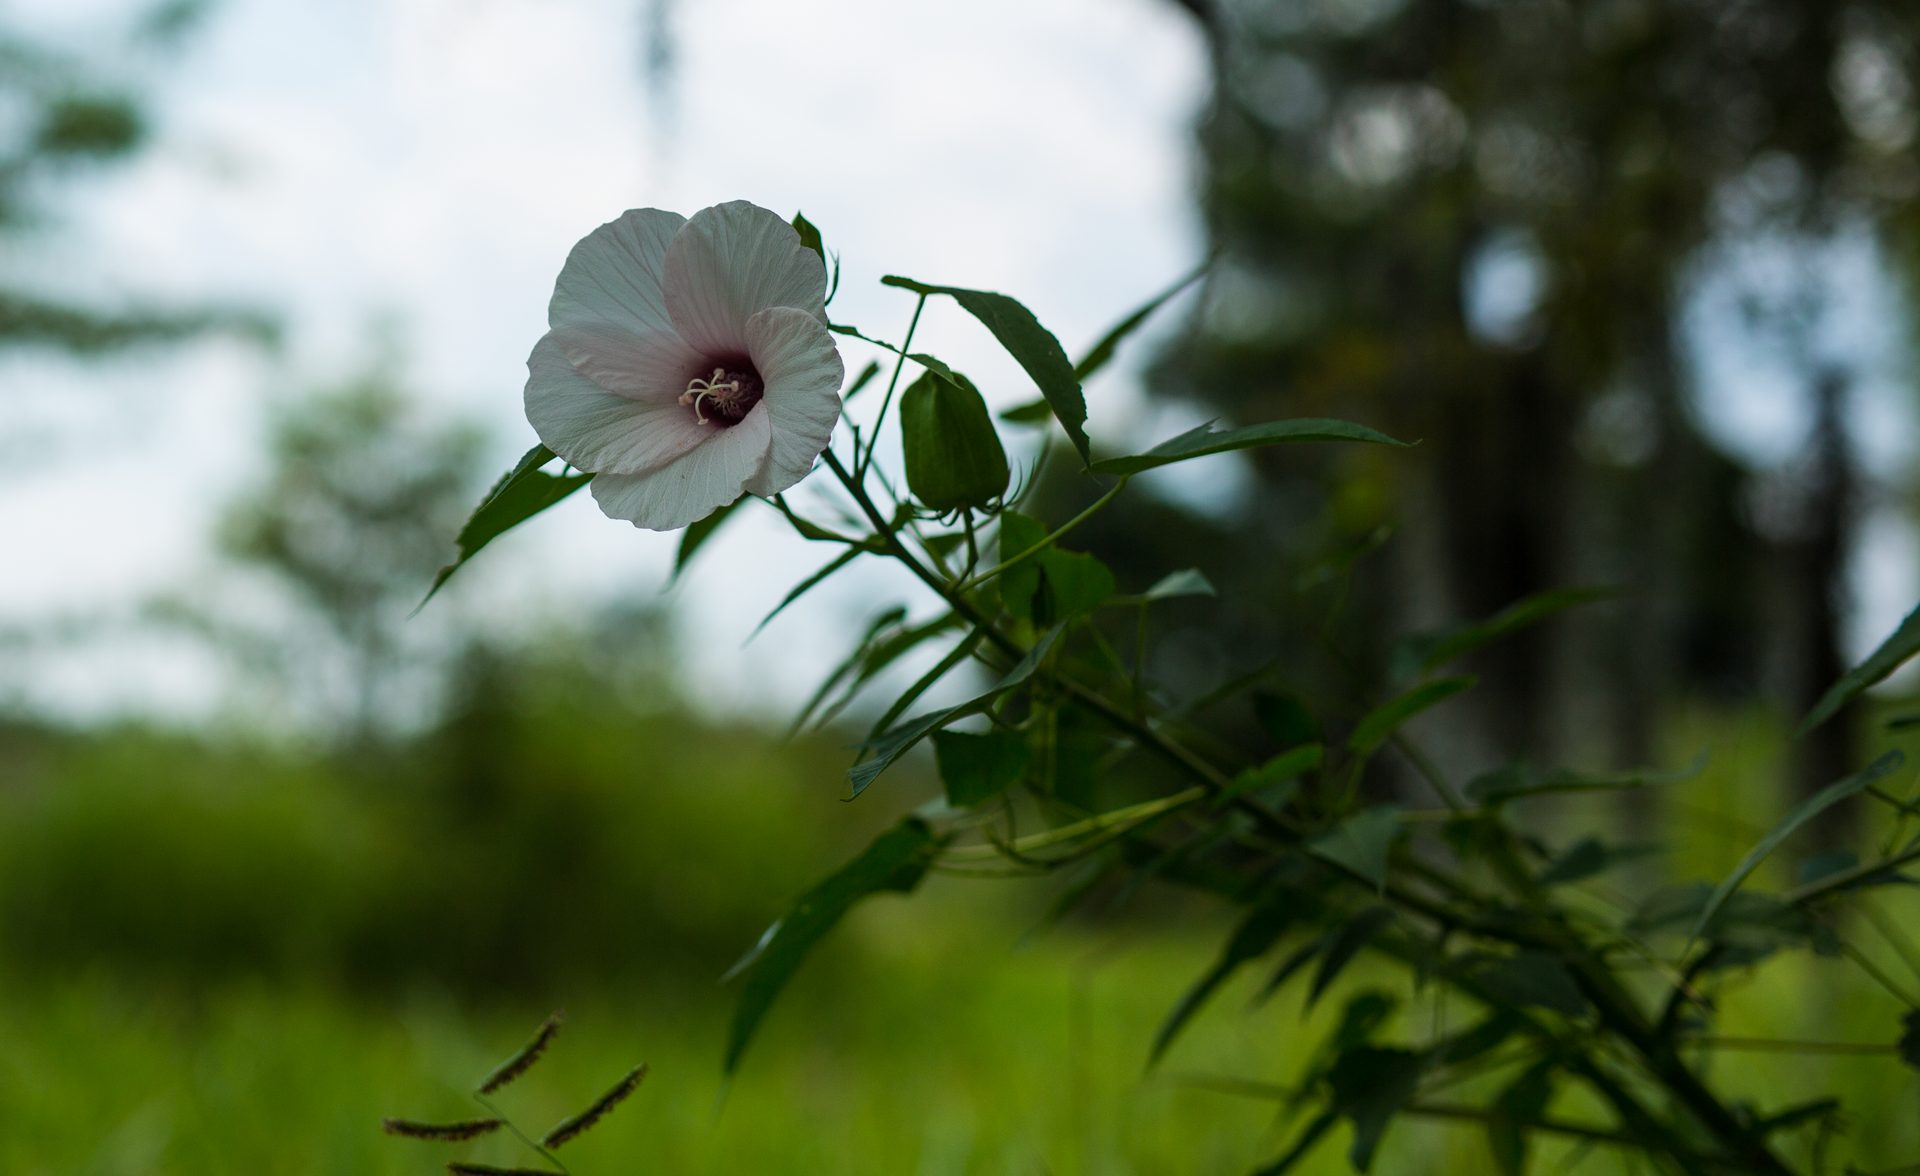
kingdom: Plantae
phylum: Tracheophyta
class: Magnoliopsida
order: Malvales
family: Malvaceae
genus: Hibiscus
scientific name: Hibiscus laevis
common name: Scarlet rose-mallow
